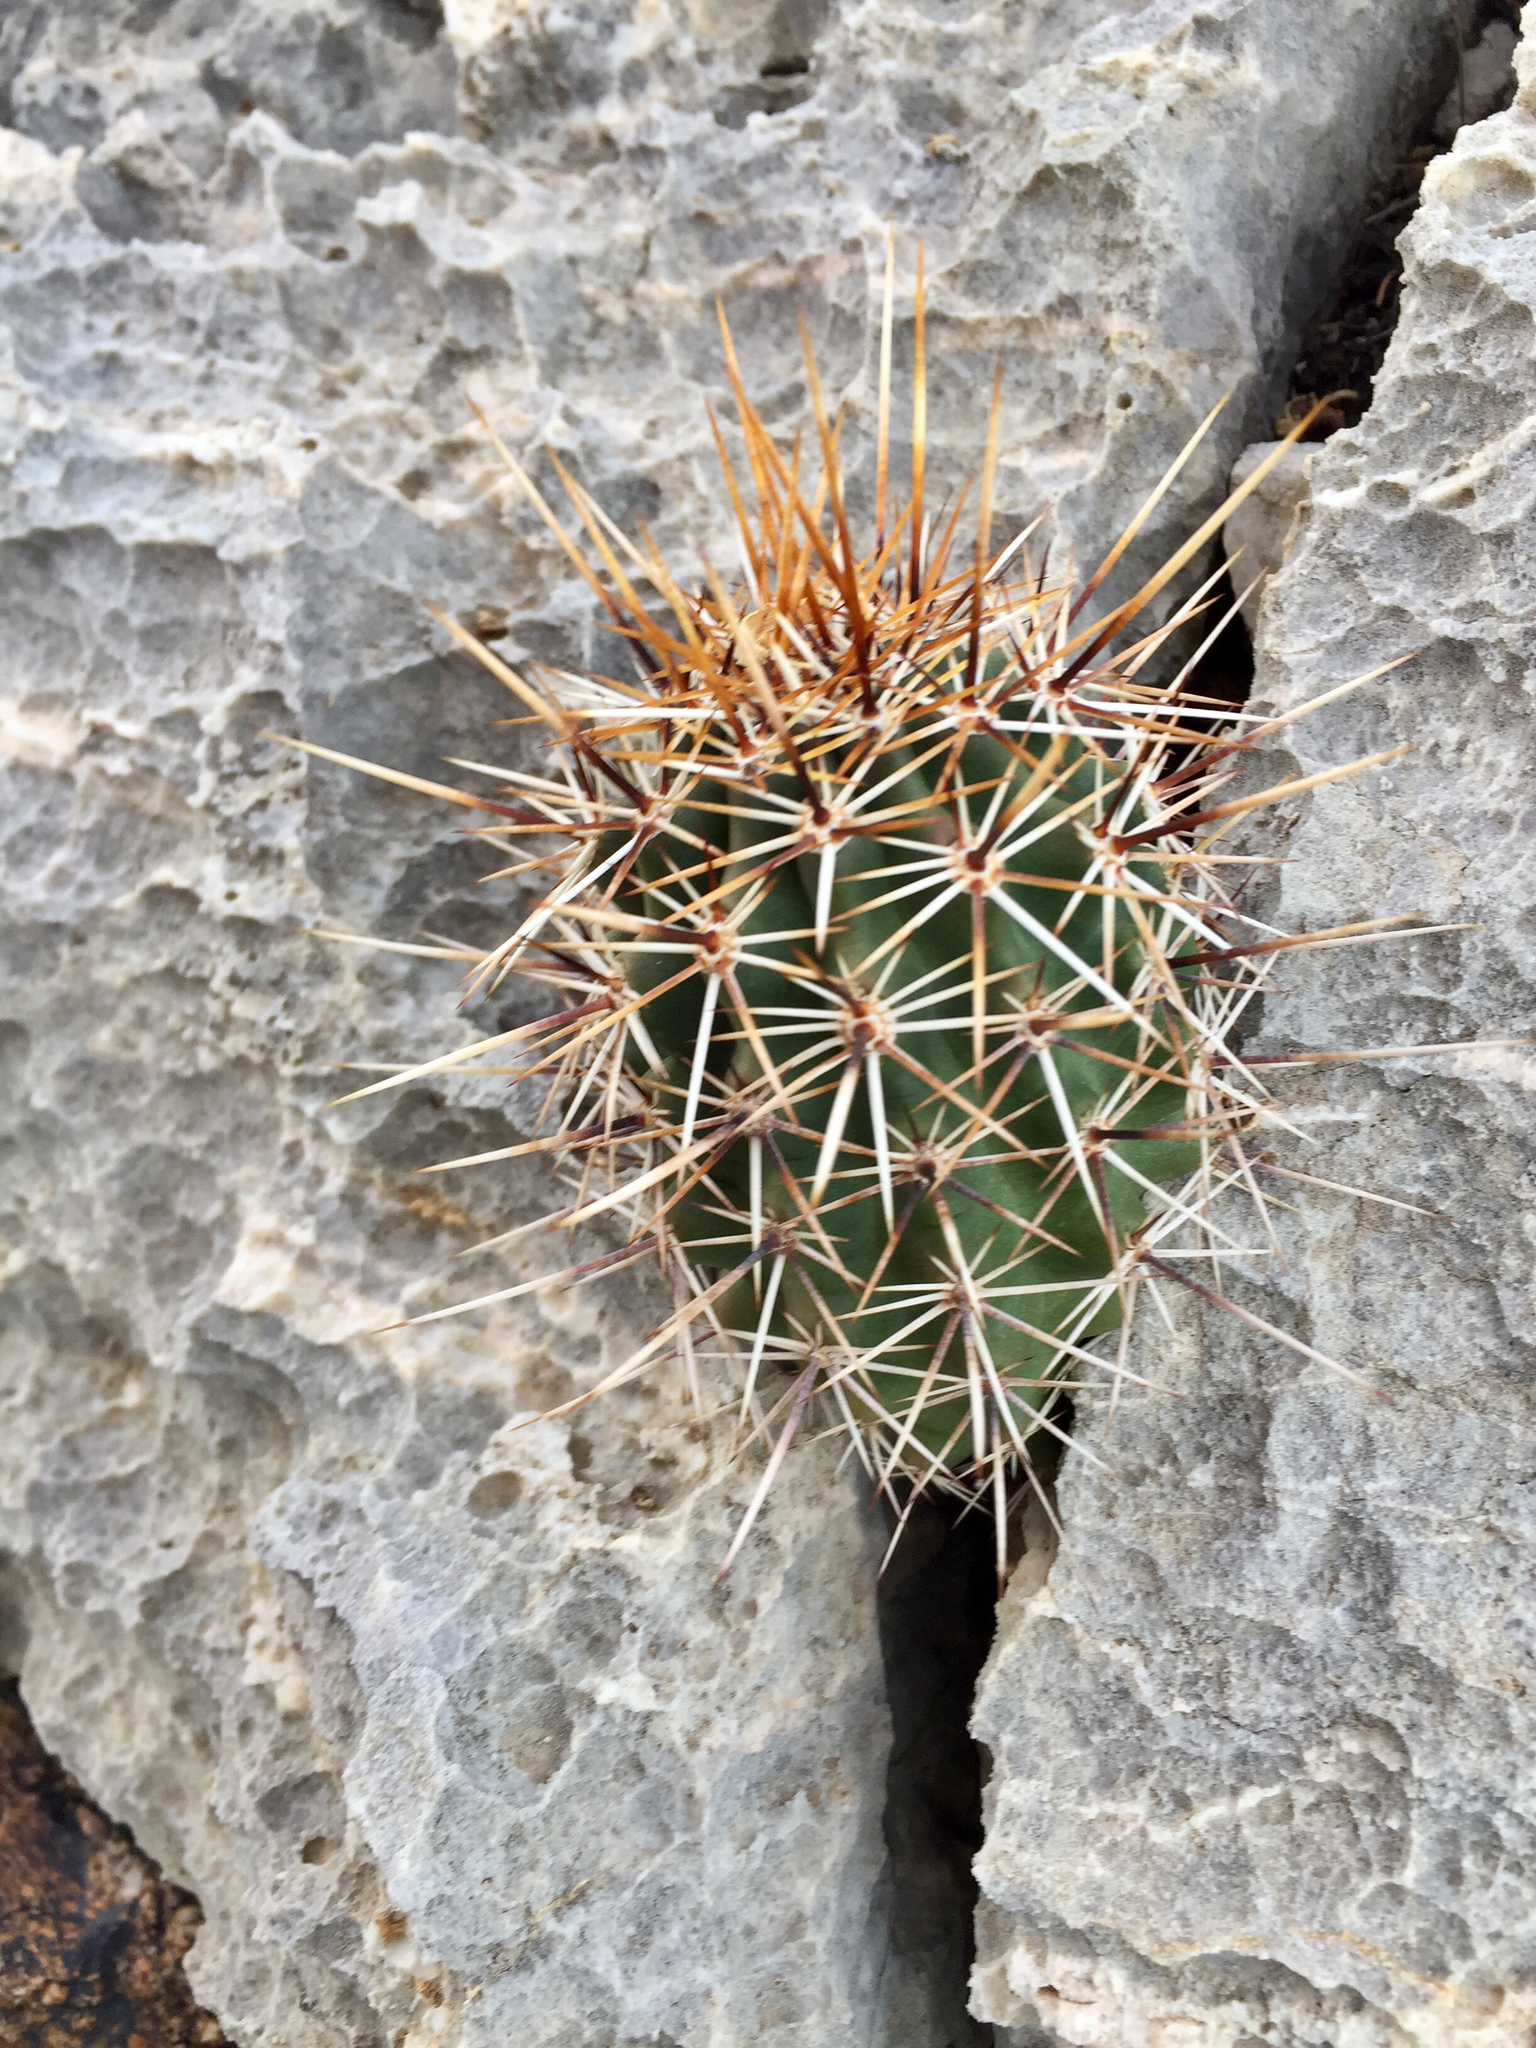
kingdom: Plantae
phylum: Tracheophyta
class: Magnoliopsida
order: Caryophyllales
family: Cactaceae
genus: Echinocereus
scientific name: Echinocereus fasciculatus
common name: Bundle hedgehog
